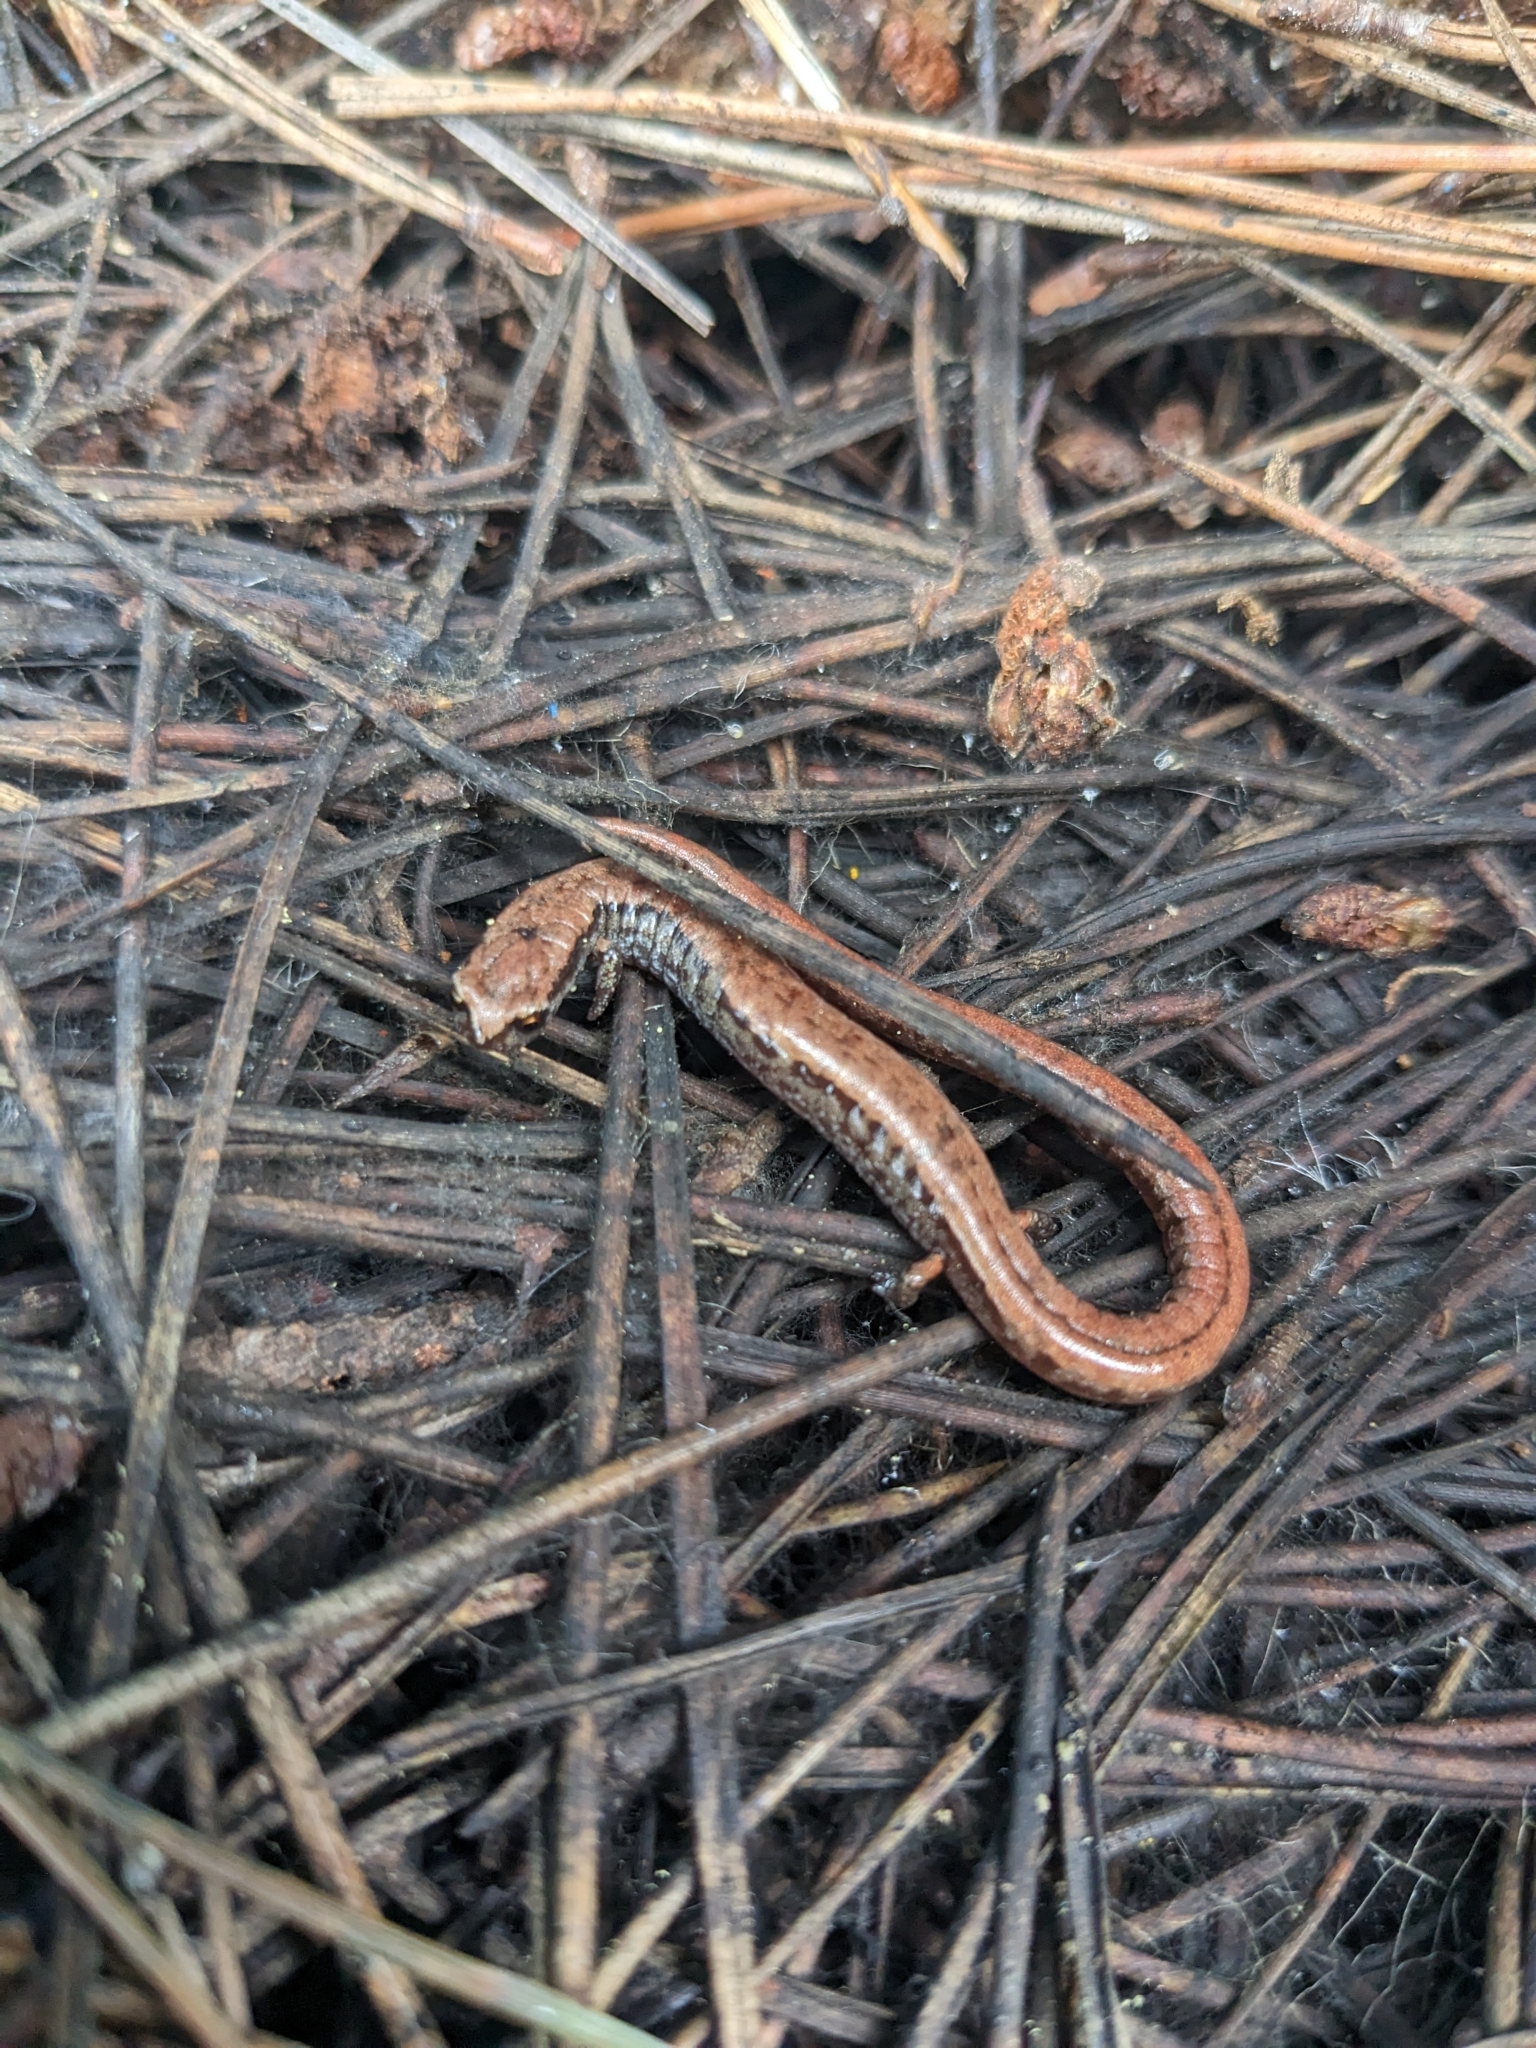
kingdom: Animalia
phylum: Chordata
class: Amphibia
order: Caudata
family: Plethodontidae
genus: Batrachoseps
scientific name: Batrachoseps attenuatus
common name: California slender salamander
